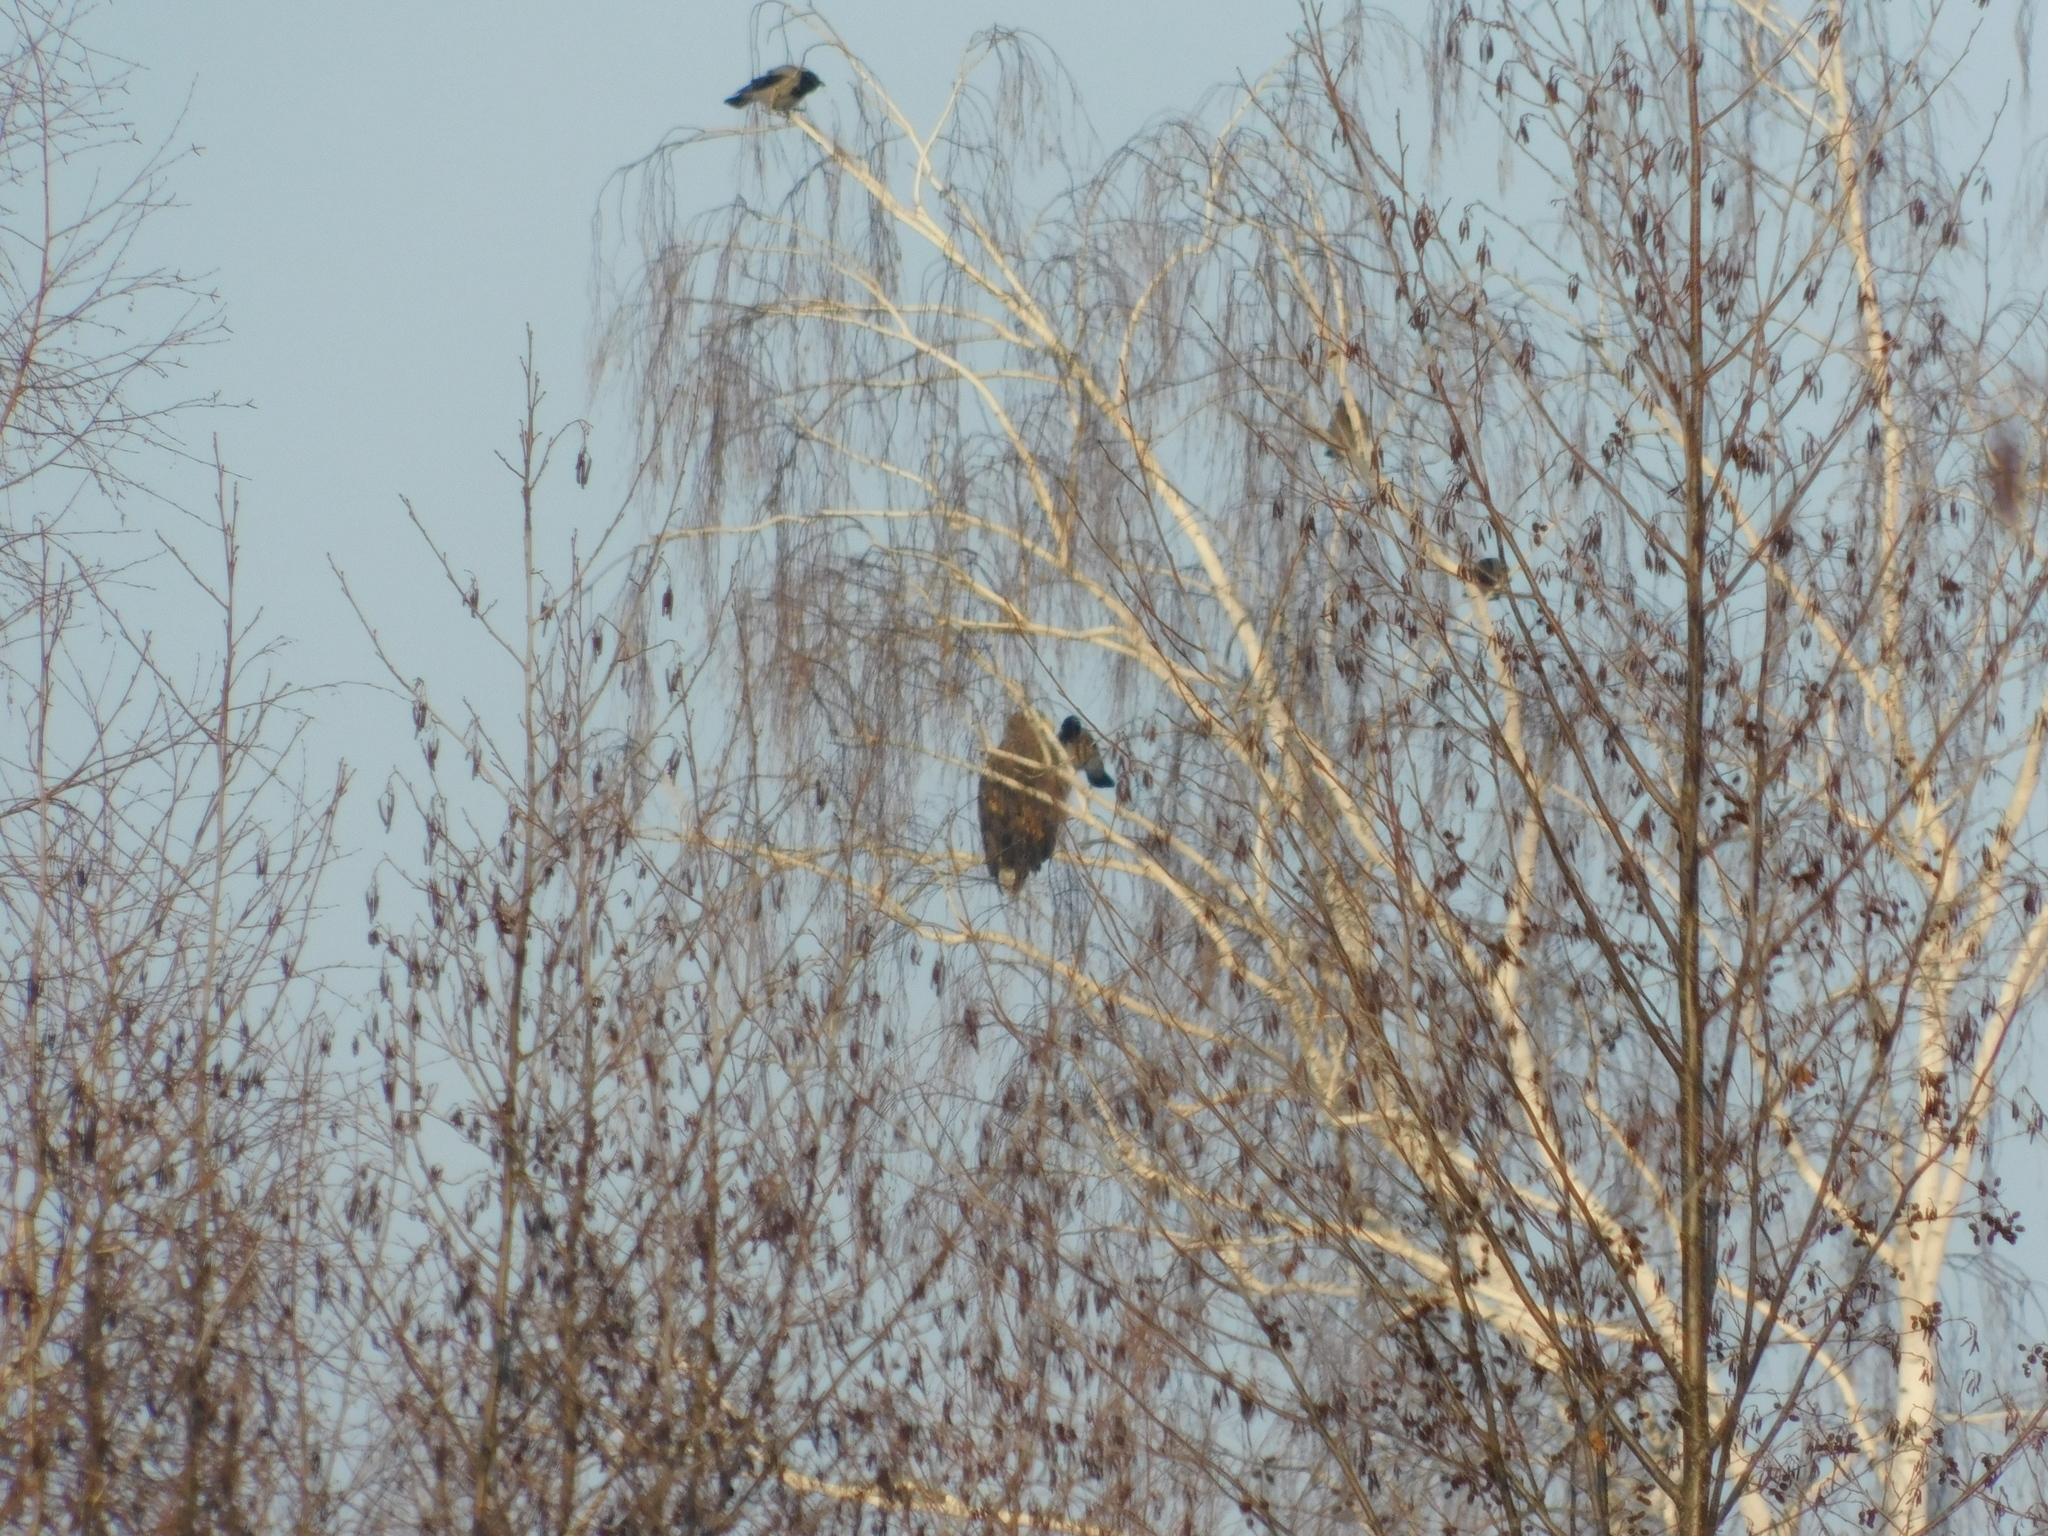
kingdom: Animalia
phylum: Chordata
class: Aves
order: Accipitriformes
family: Accipitridae
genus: Haliaeetus
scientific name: Haliaeetus albicilla
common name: White-tailed eagle
